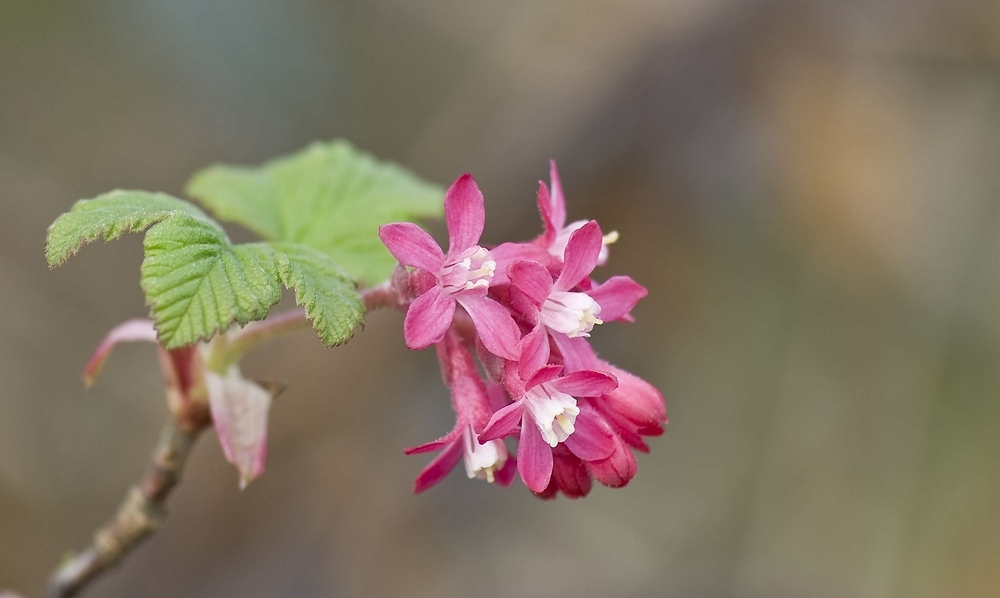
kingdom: Plantae
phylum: Tracheophyta
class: Magnoliopsida
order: Saxifragales
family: Grossulariaceae
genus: Ribes
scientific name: Ribes sanguineum
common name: Flowering currant
